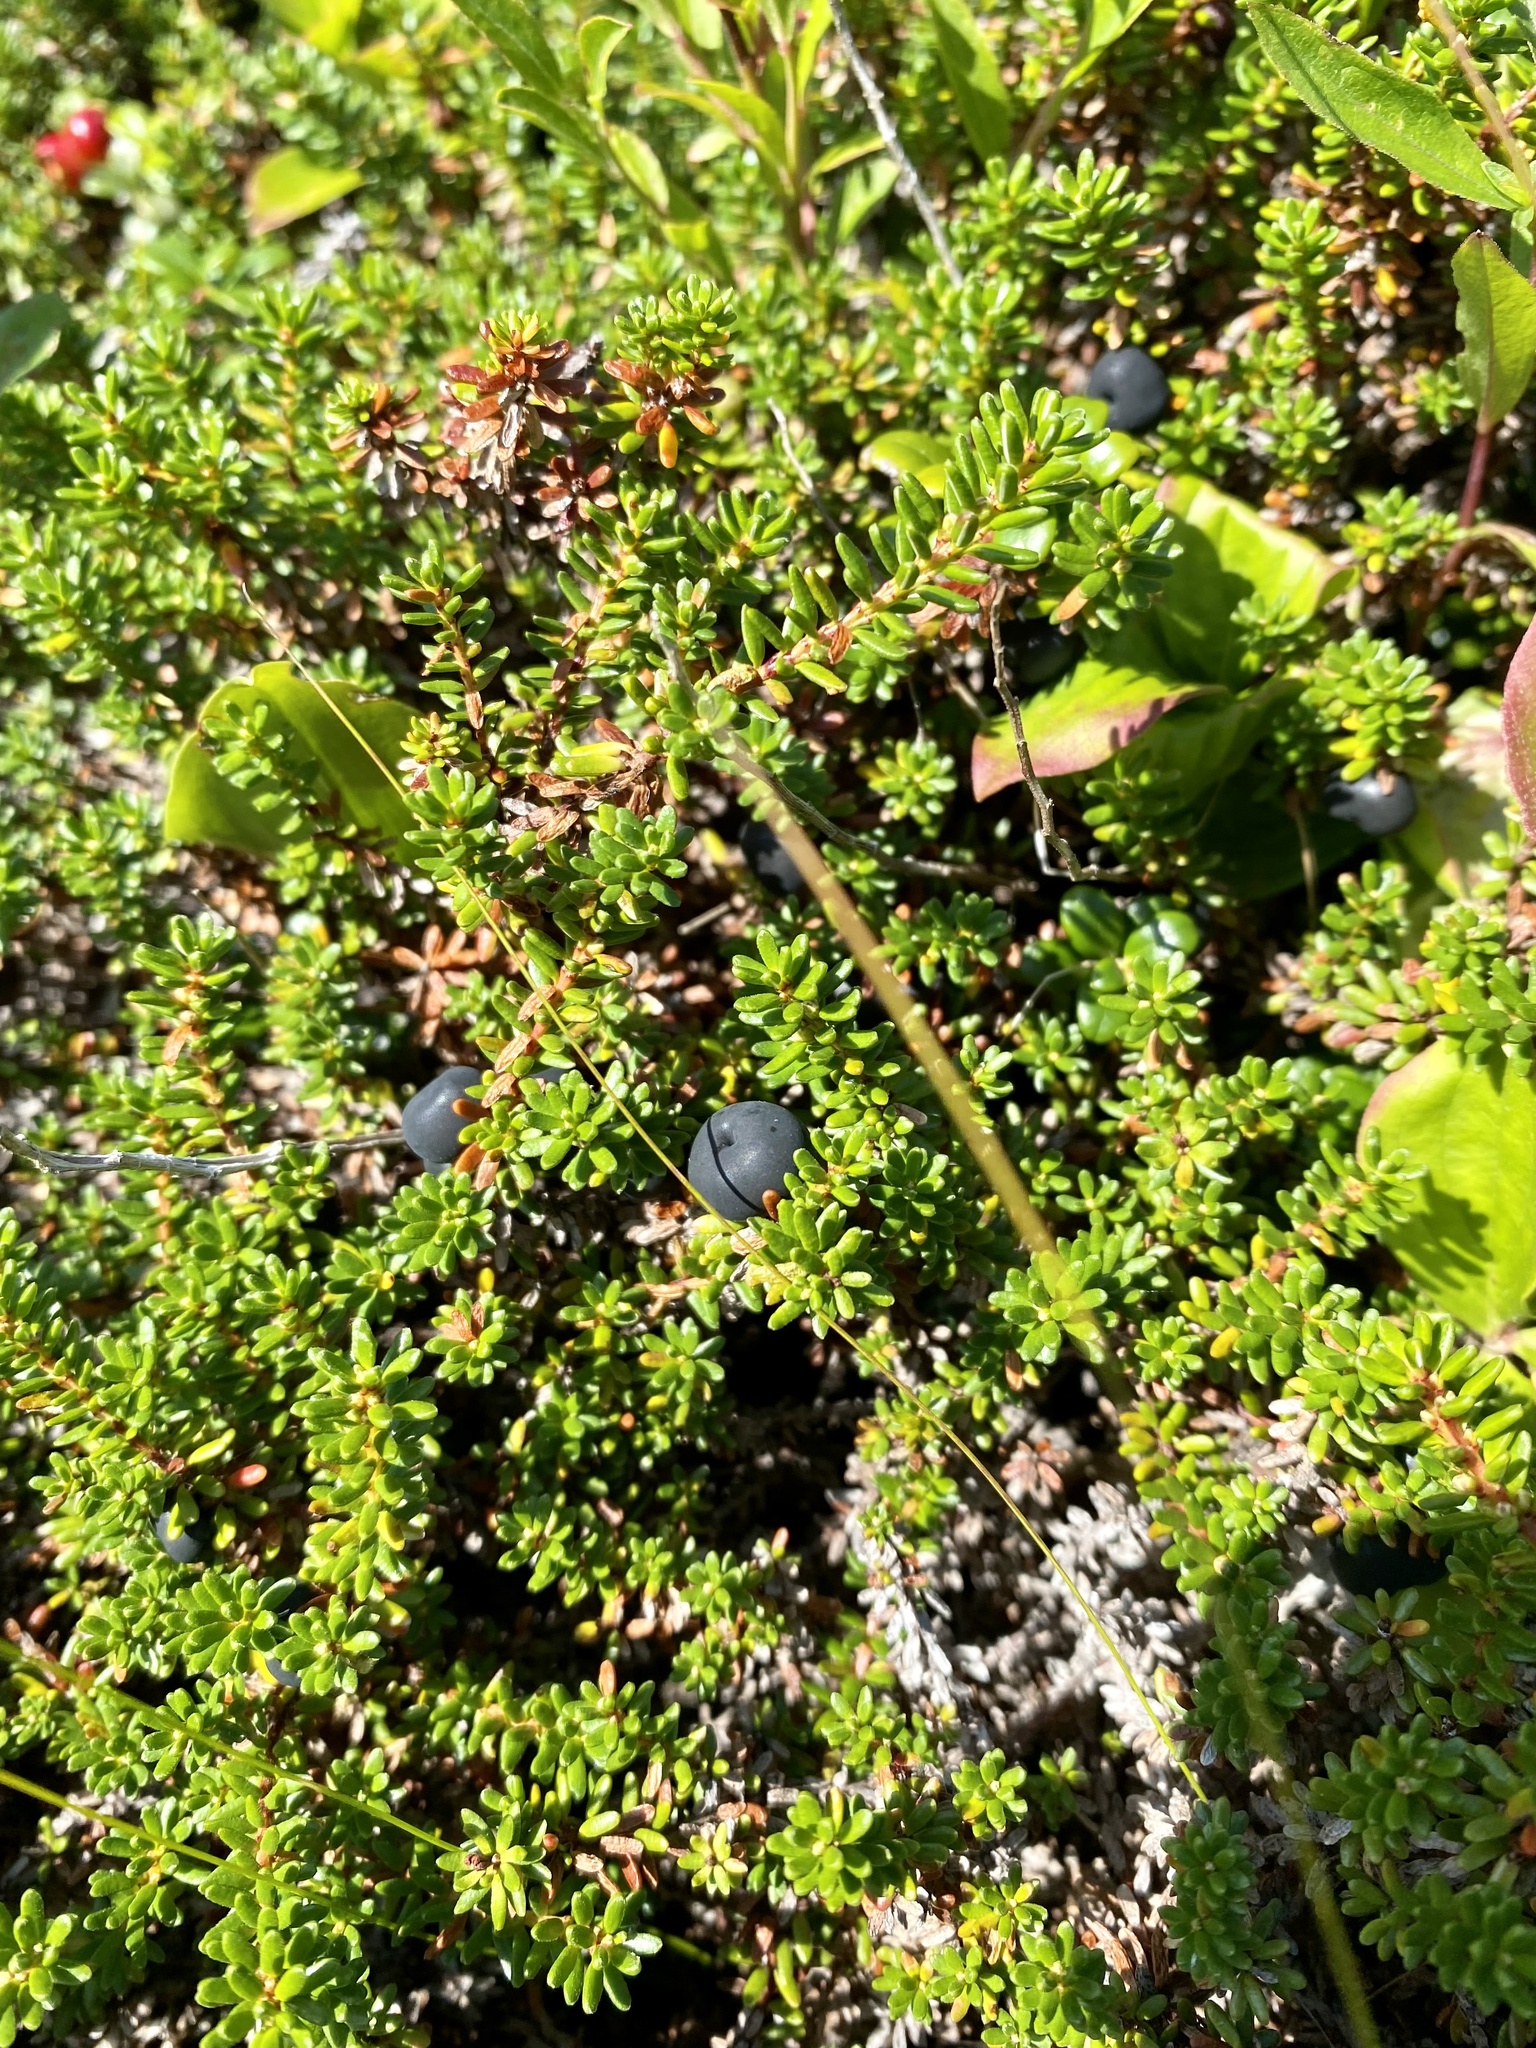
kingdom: Plantae
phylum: Tracheophyta
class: Magnoliopsida
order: Ericales
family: Ericaceae
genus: Empetrum
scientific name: Empetrum nigrum
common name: Black crowberry
